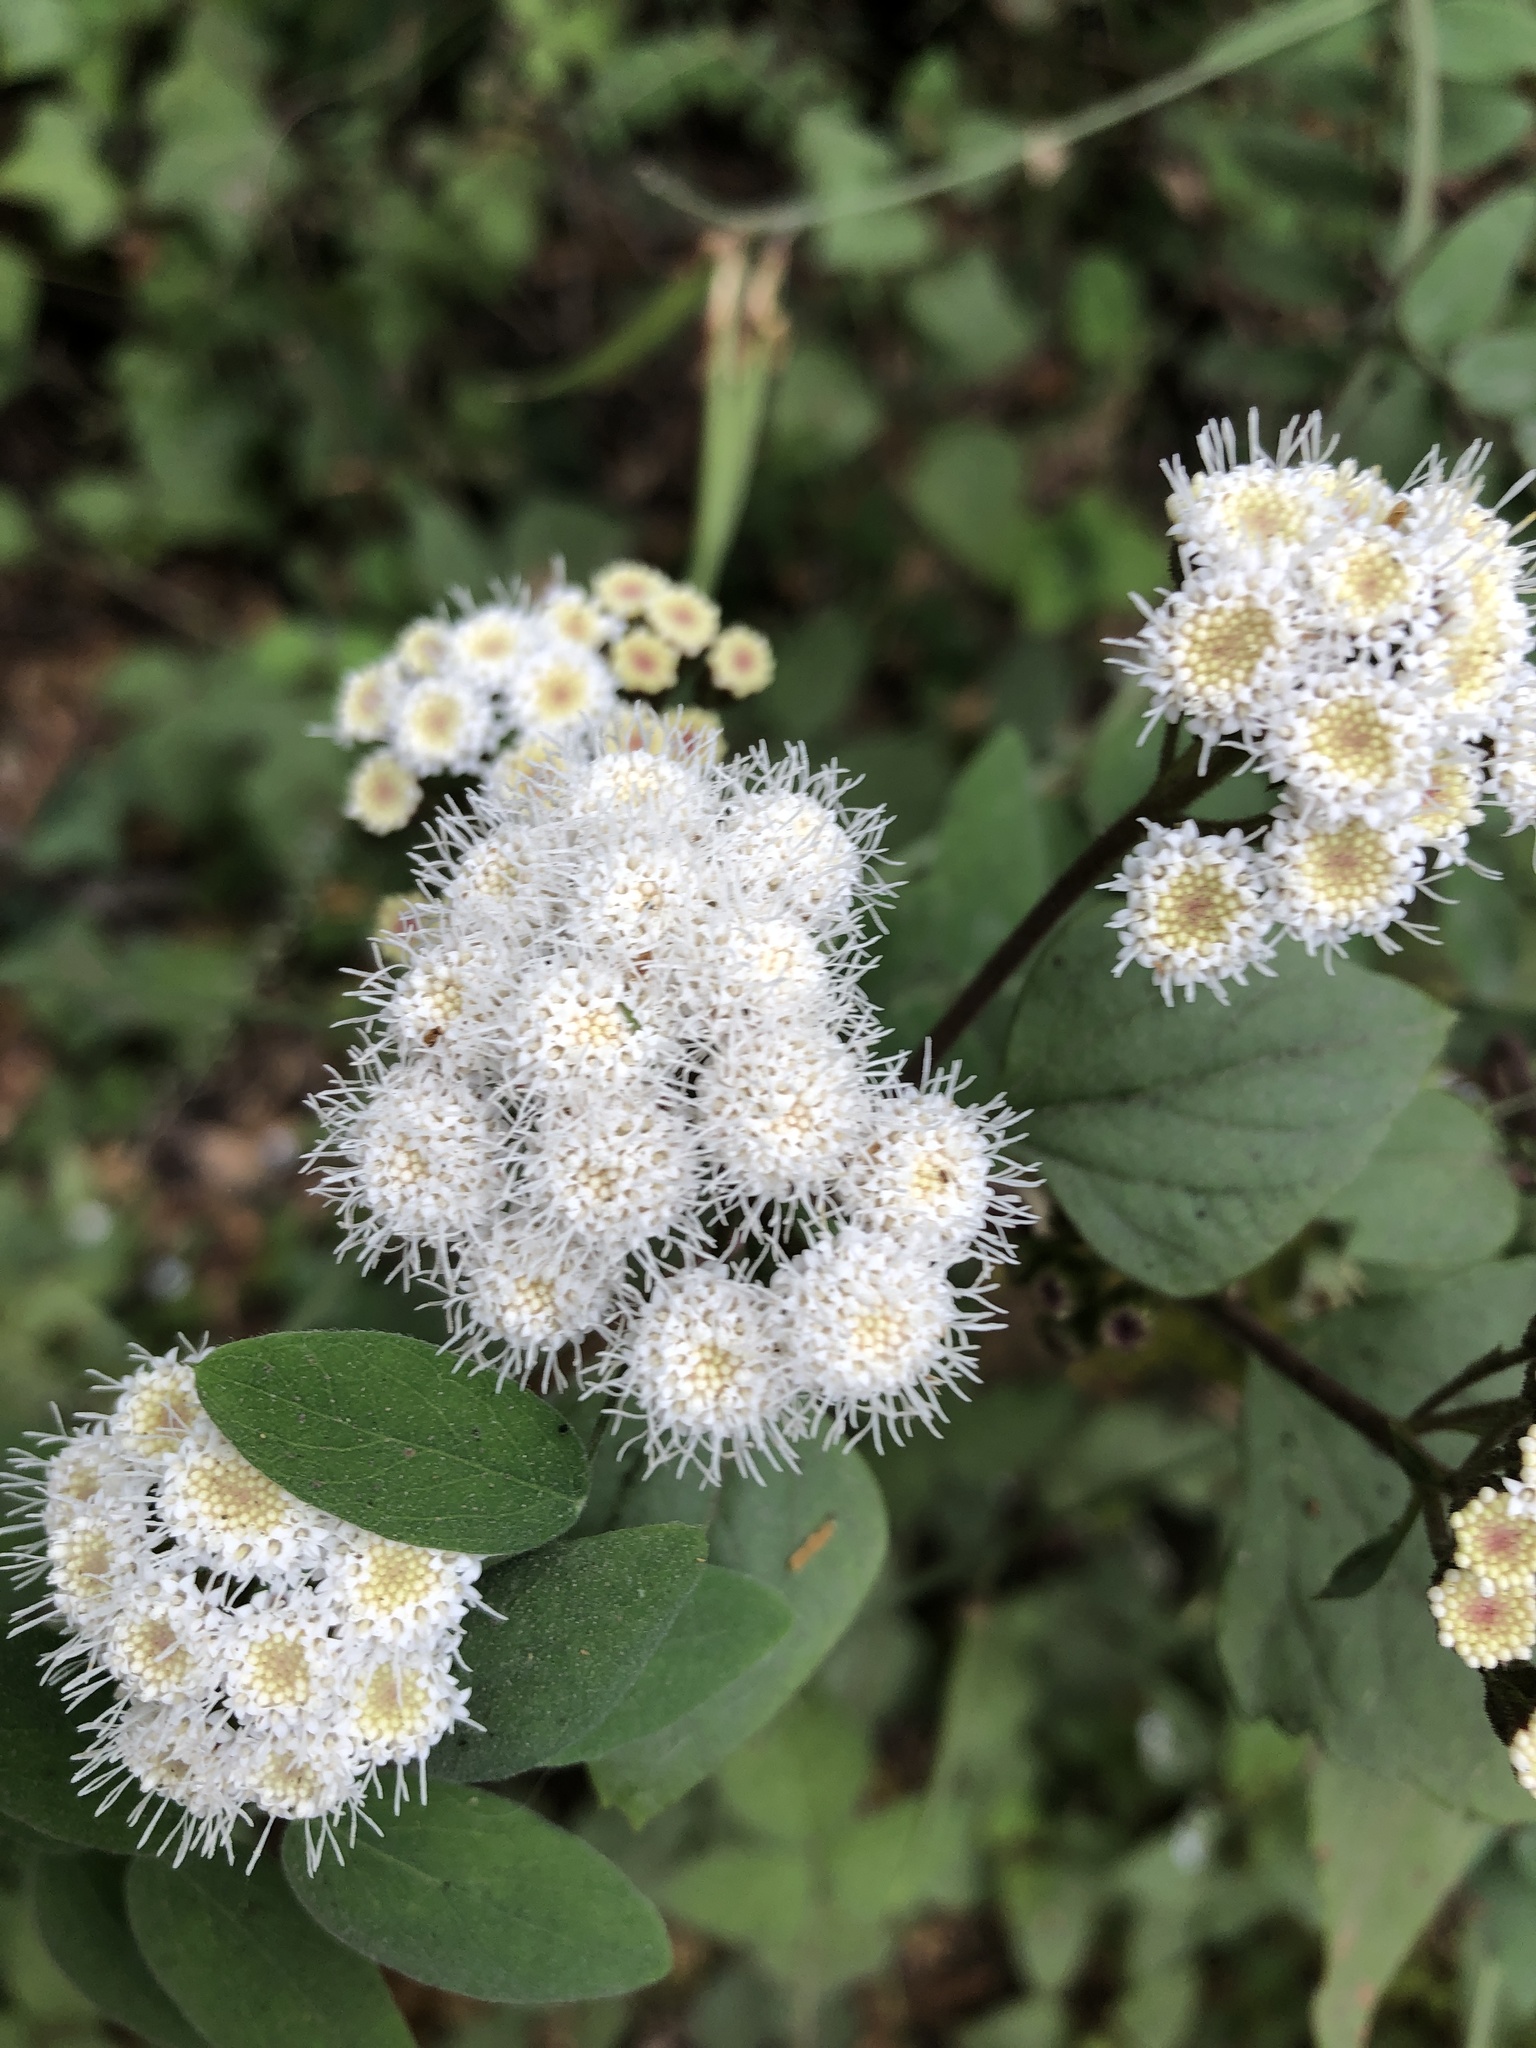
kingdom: Plantae
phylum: Tracheophyta
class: Magnoliopsida
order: Asterales
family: Asteraceae
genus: Ageratina
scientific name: Ageratina adenophora
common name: Sticky snakeroot
